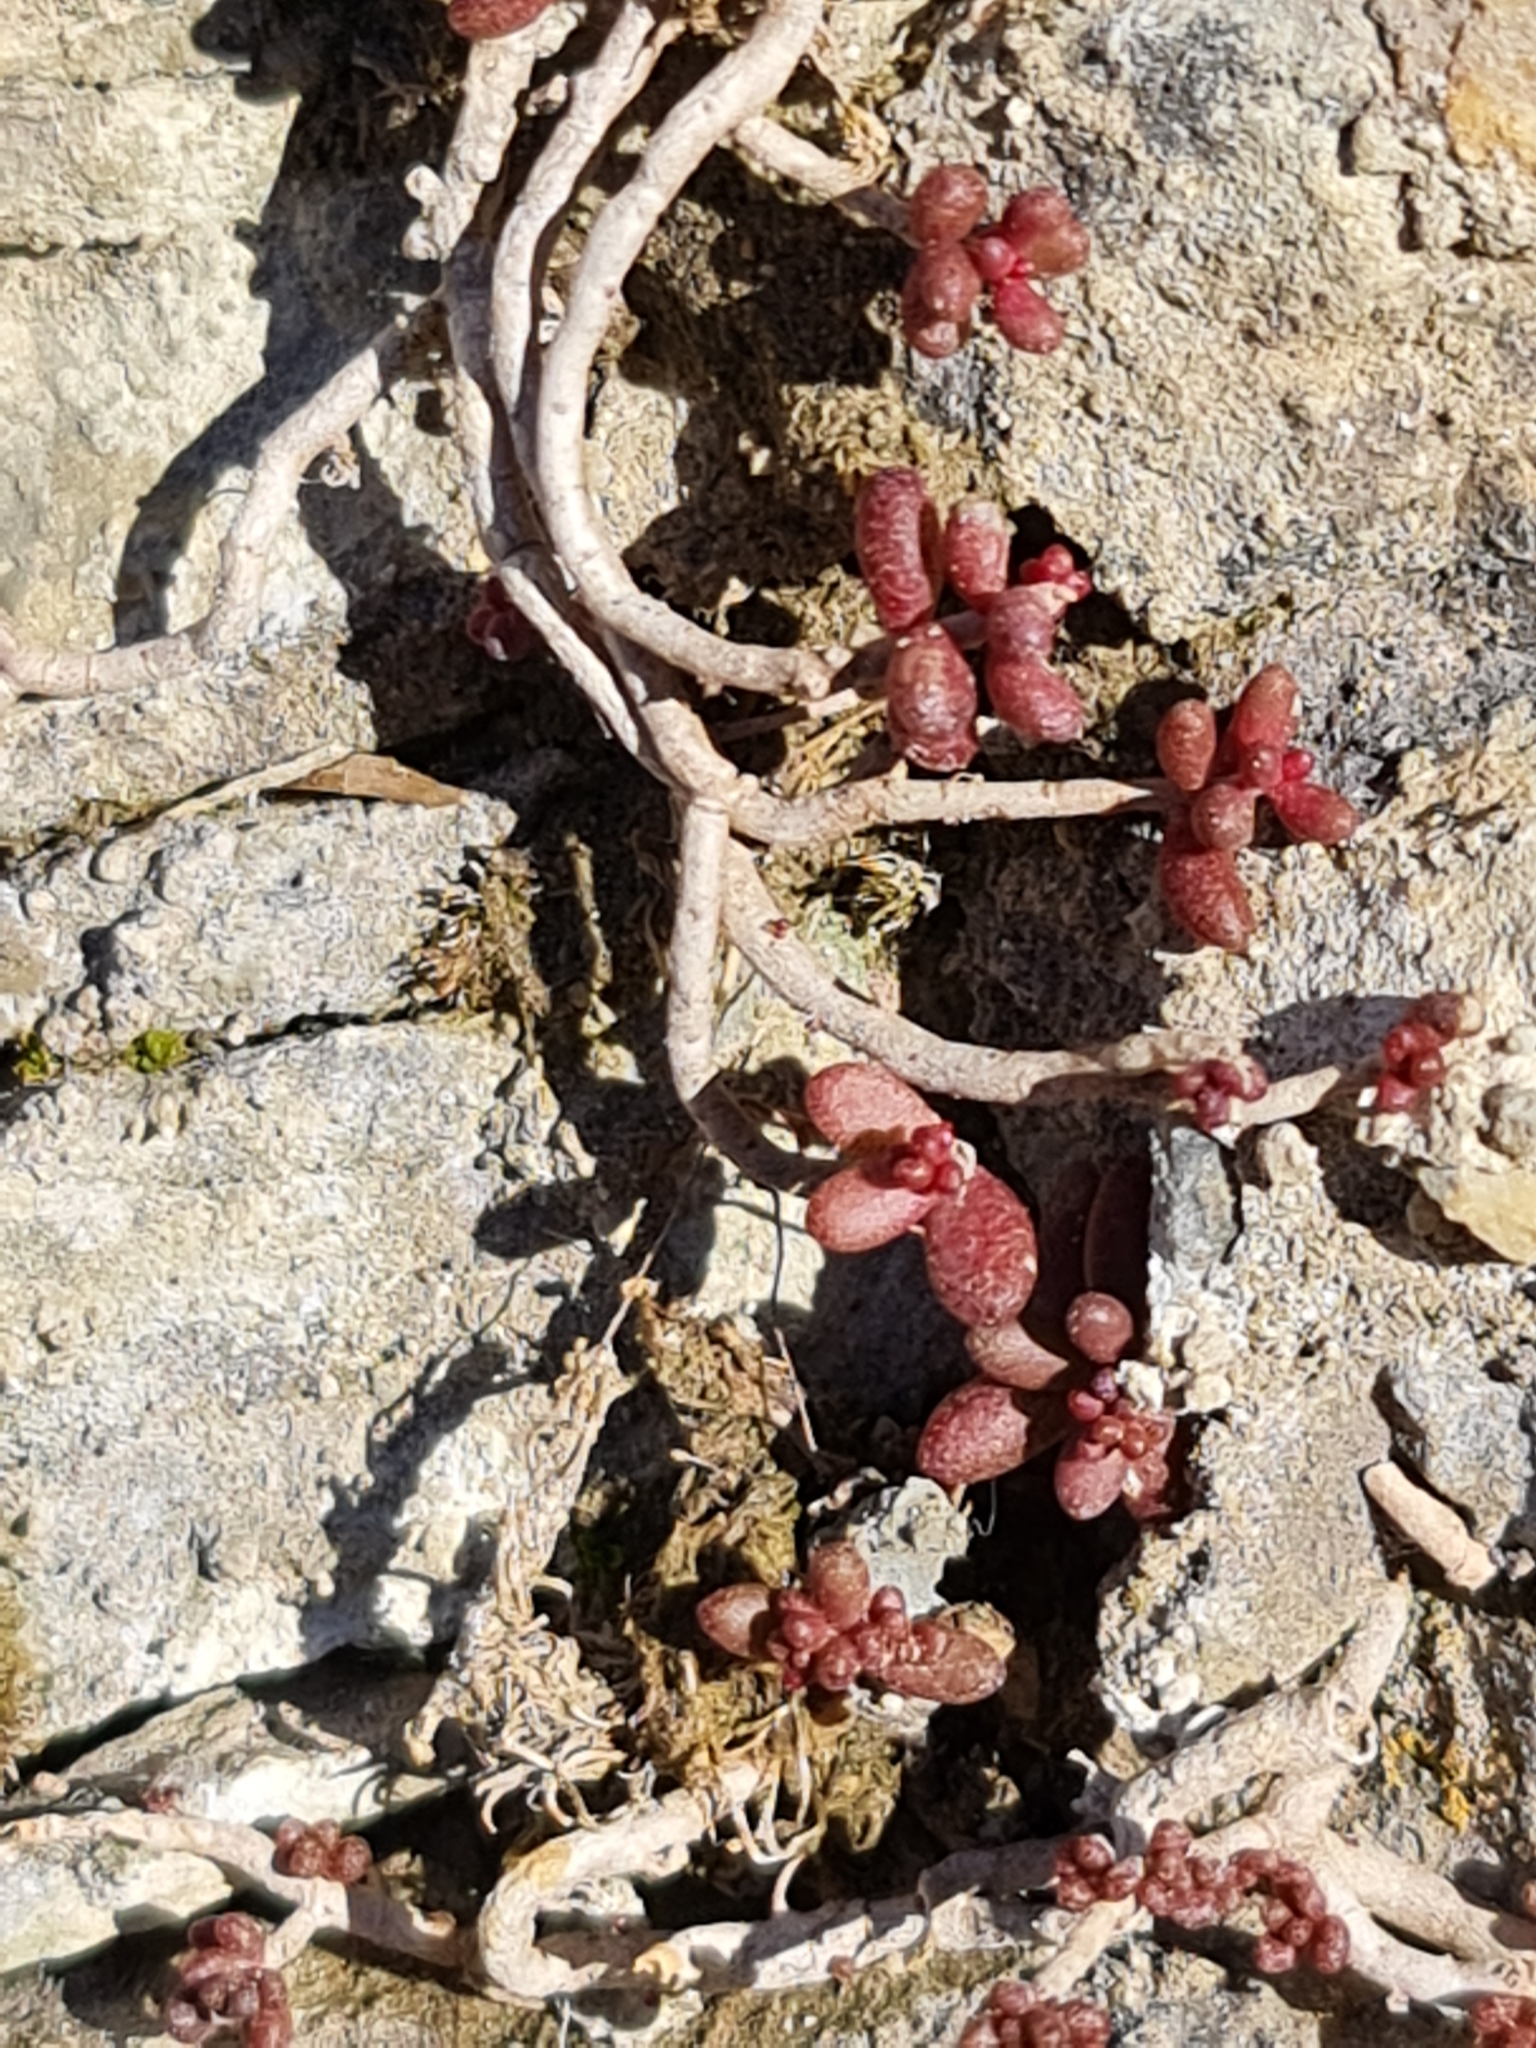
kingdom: Plantae
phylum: Tracheophyta
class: Magnoliopsida
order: Saxifragales
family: Crassulaceae
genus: Sedum
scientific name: Sedum album
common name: White stonecrop
